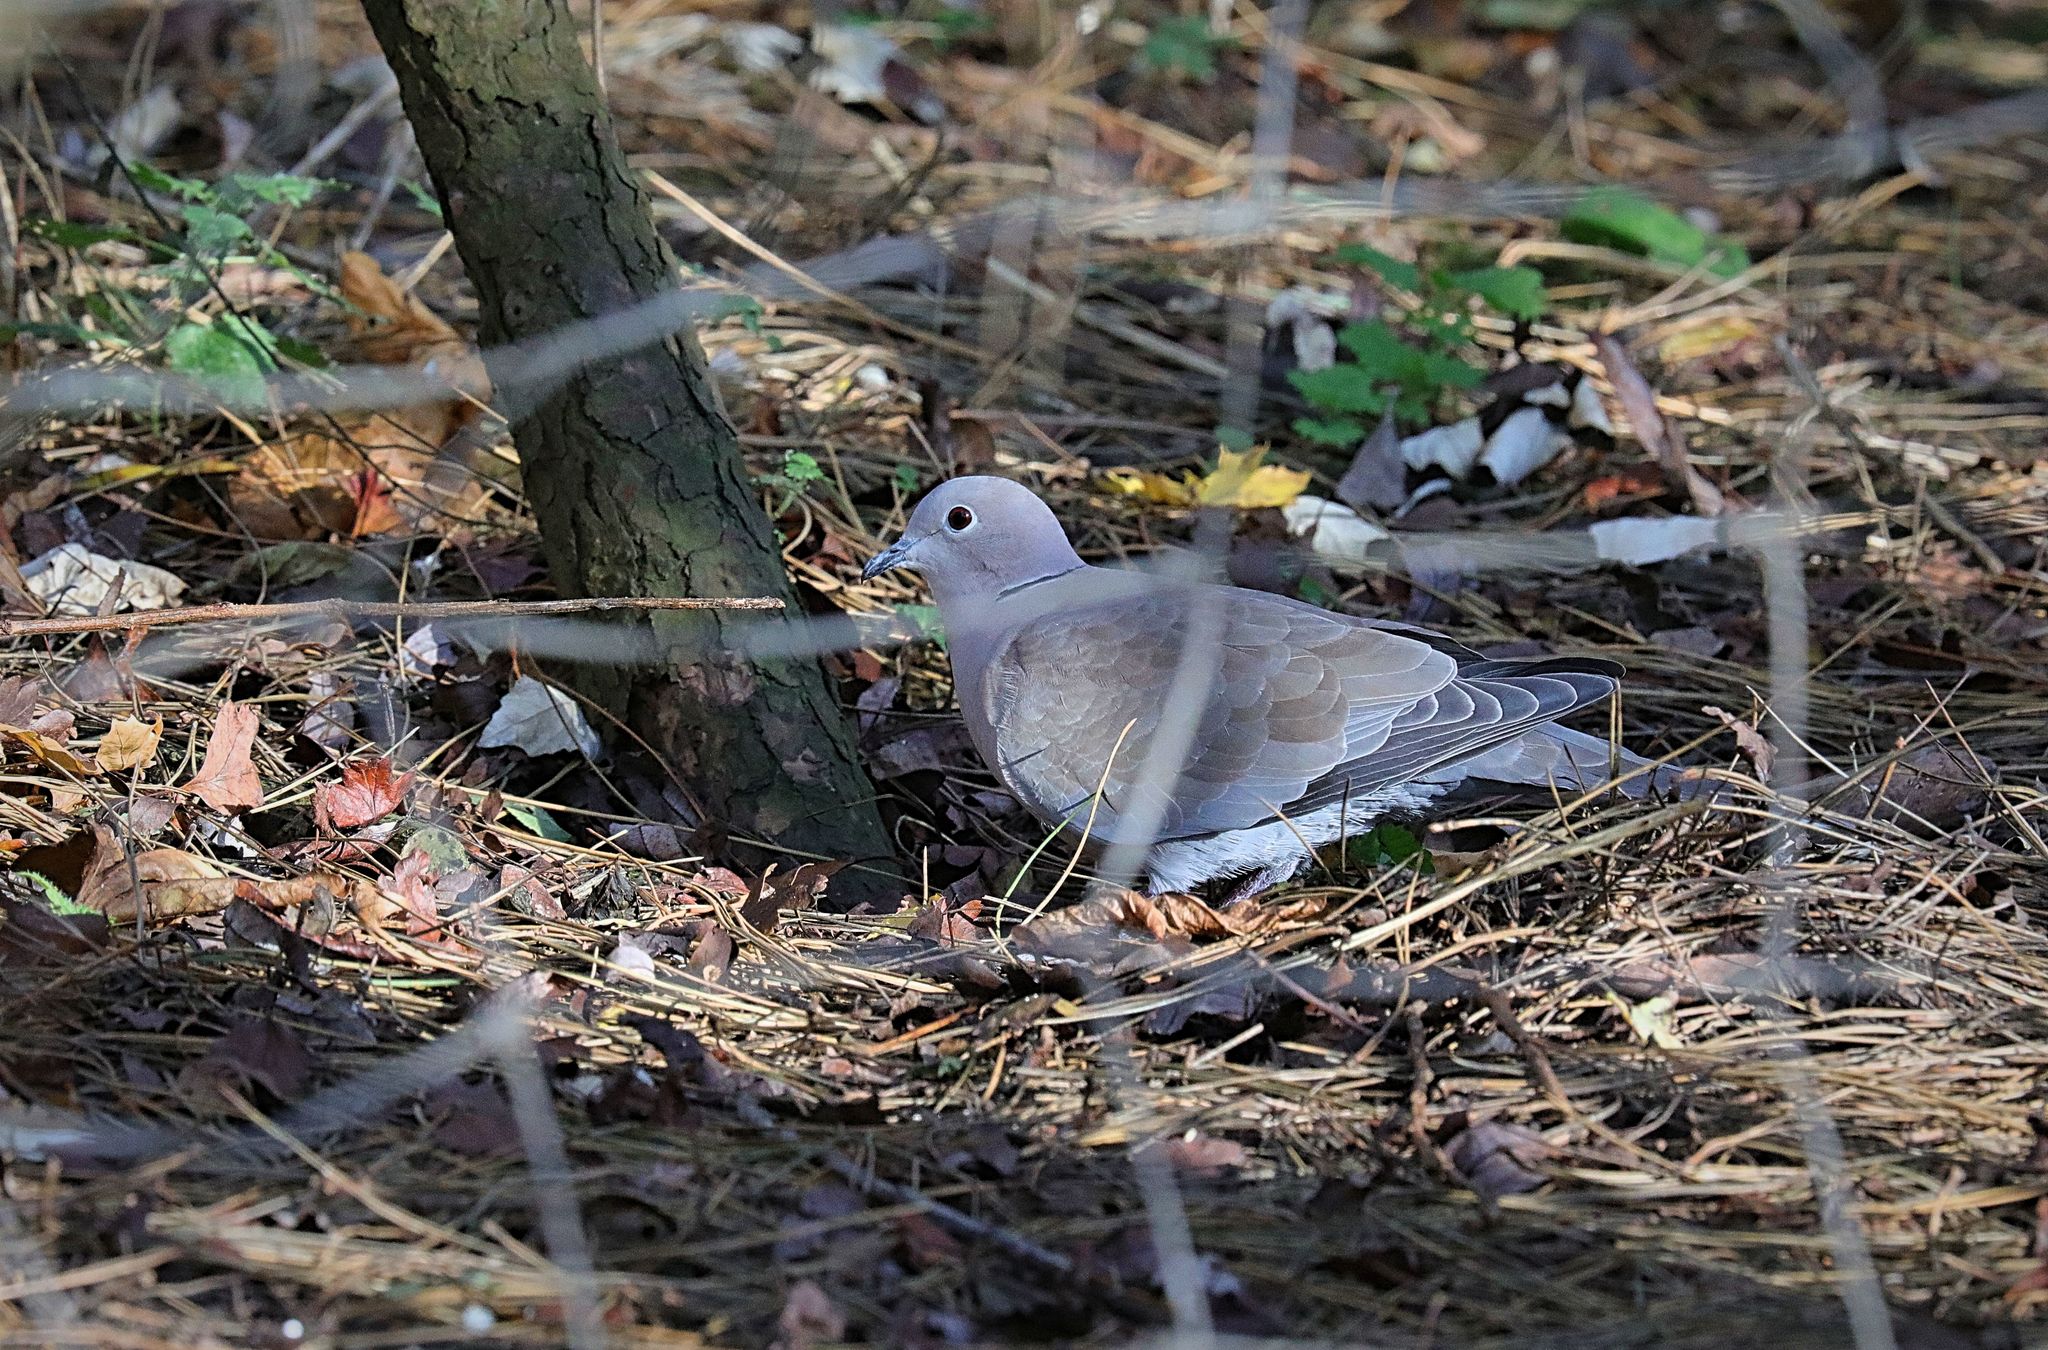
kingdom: Animalia
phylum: Chordata
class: Aves
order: Columbiformes
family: Columbidae
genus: Streptopelia
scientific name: Streptopelia decaocto
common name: Eurasian collared dove
